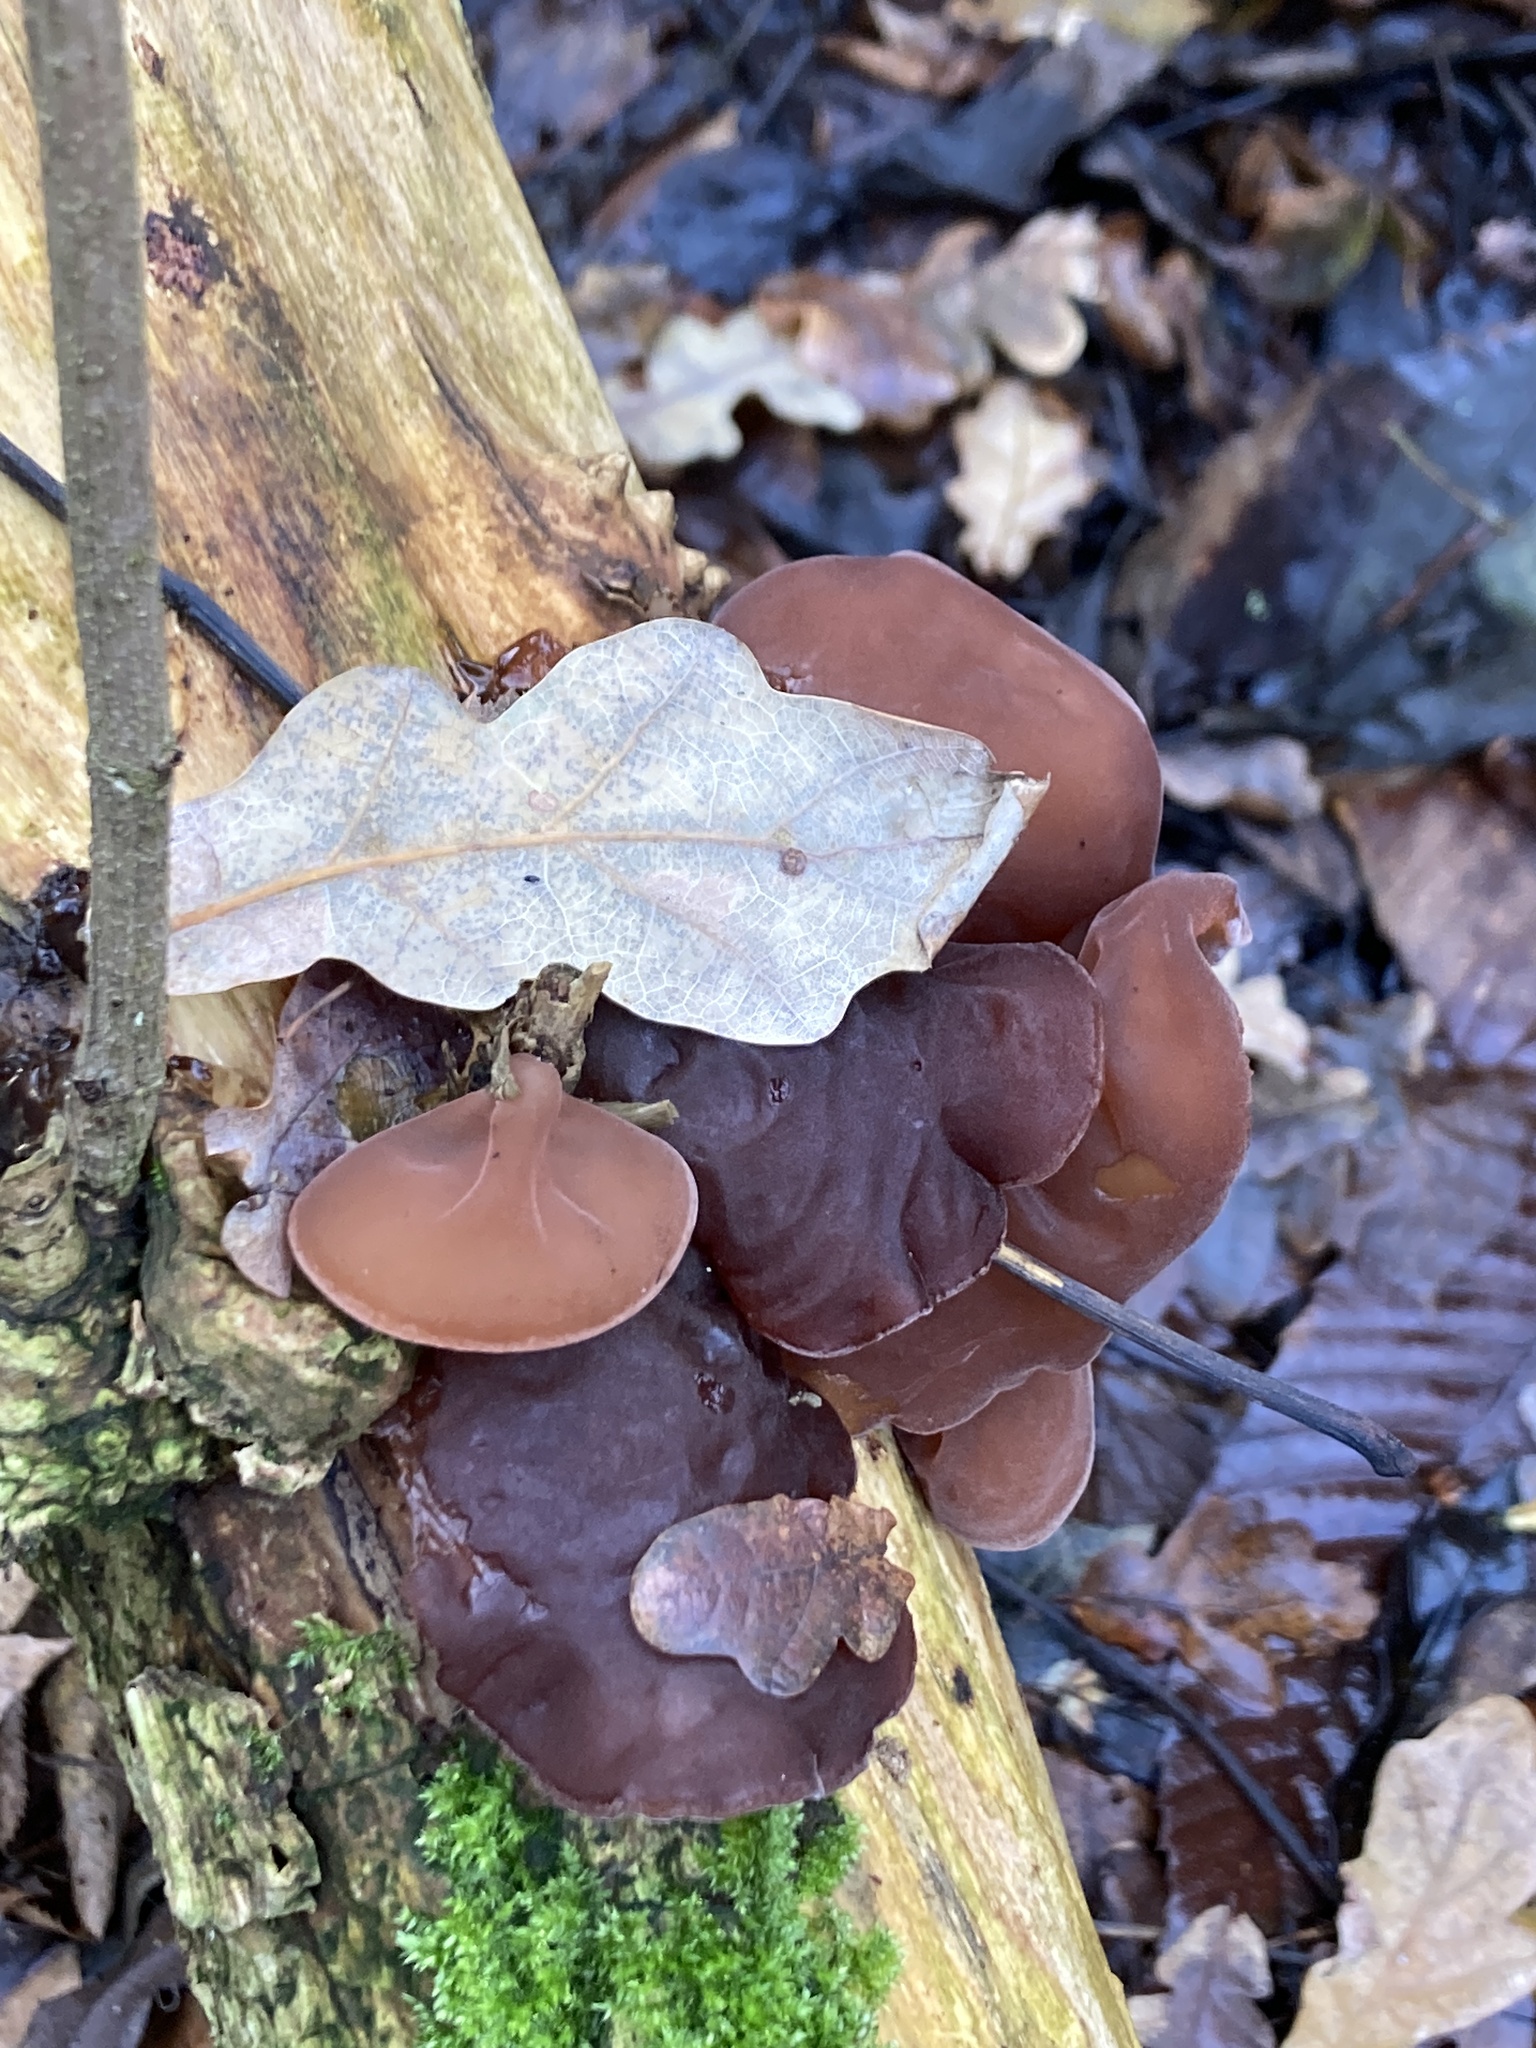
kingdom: Fungi
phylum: Basidiomycota
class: Agaricomycetes
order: Auriculariales
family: Auriculariaceae
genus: Auricularia
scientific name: Auricularia auricula-judae
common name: Jelly ear
